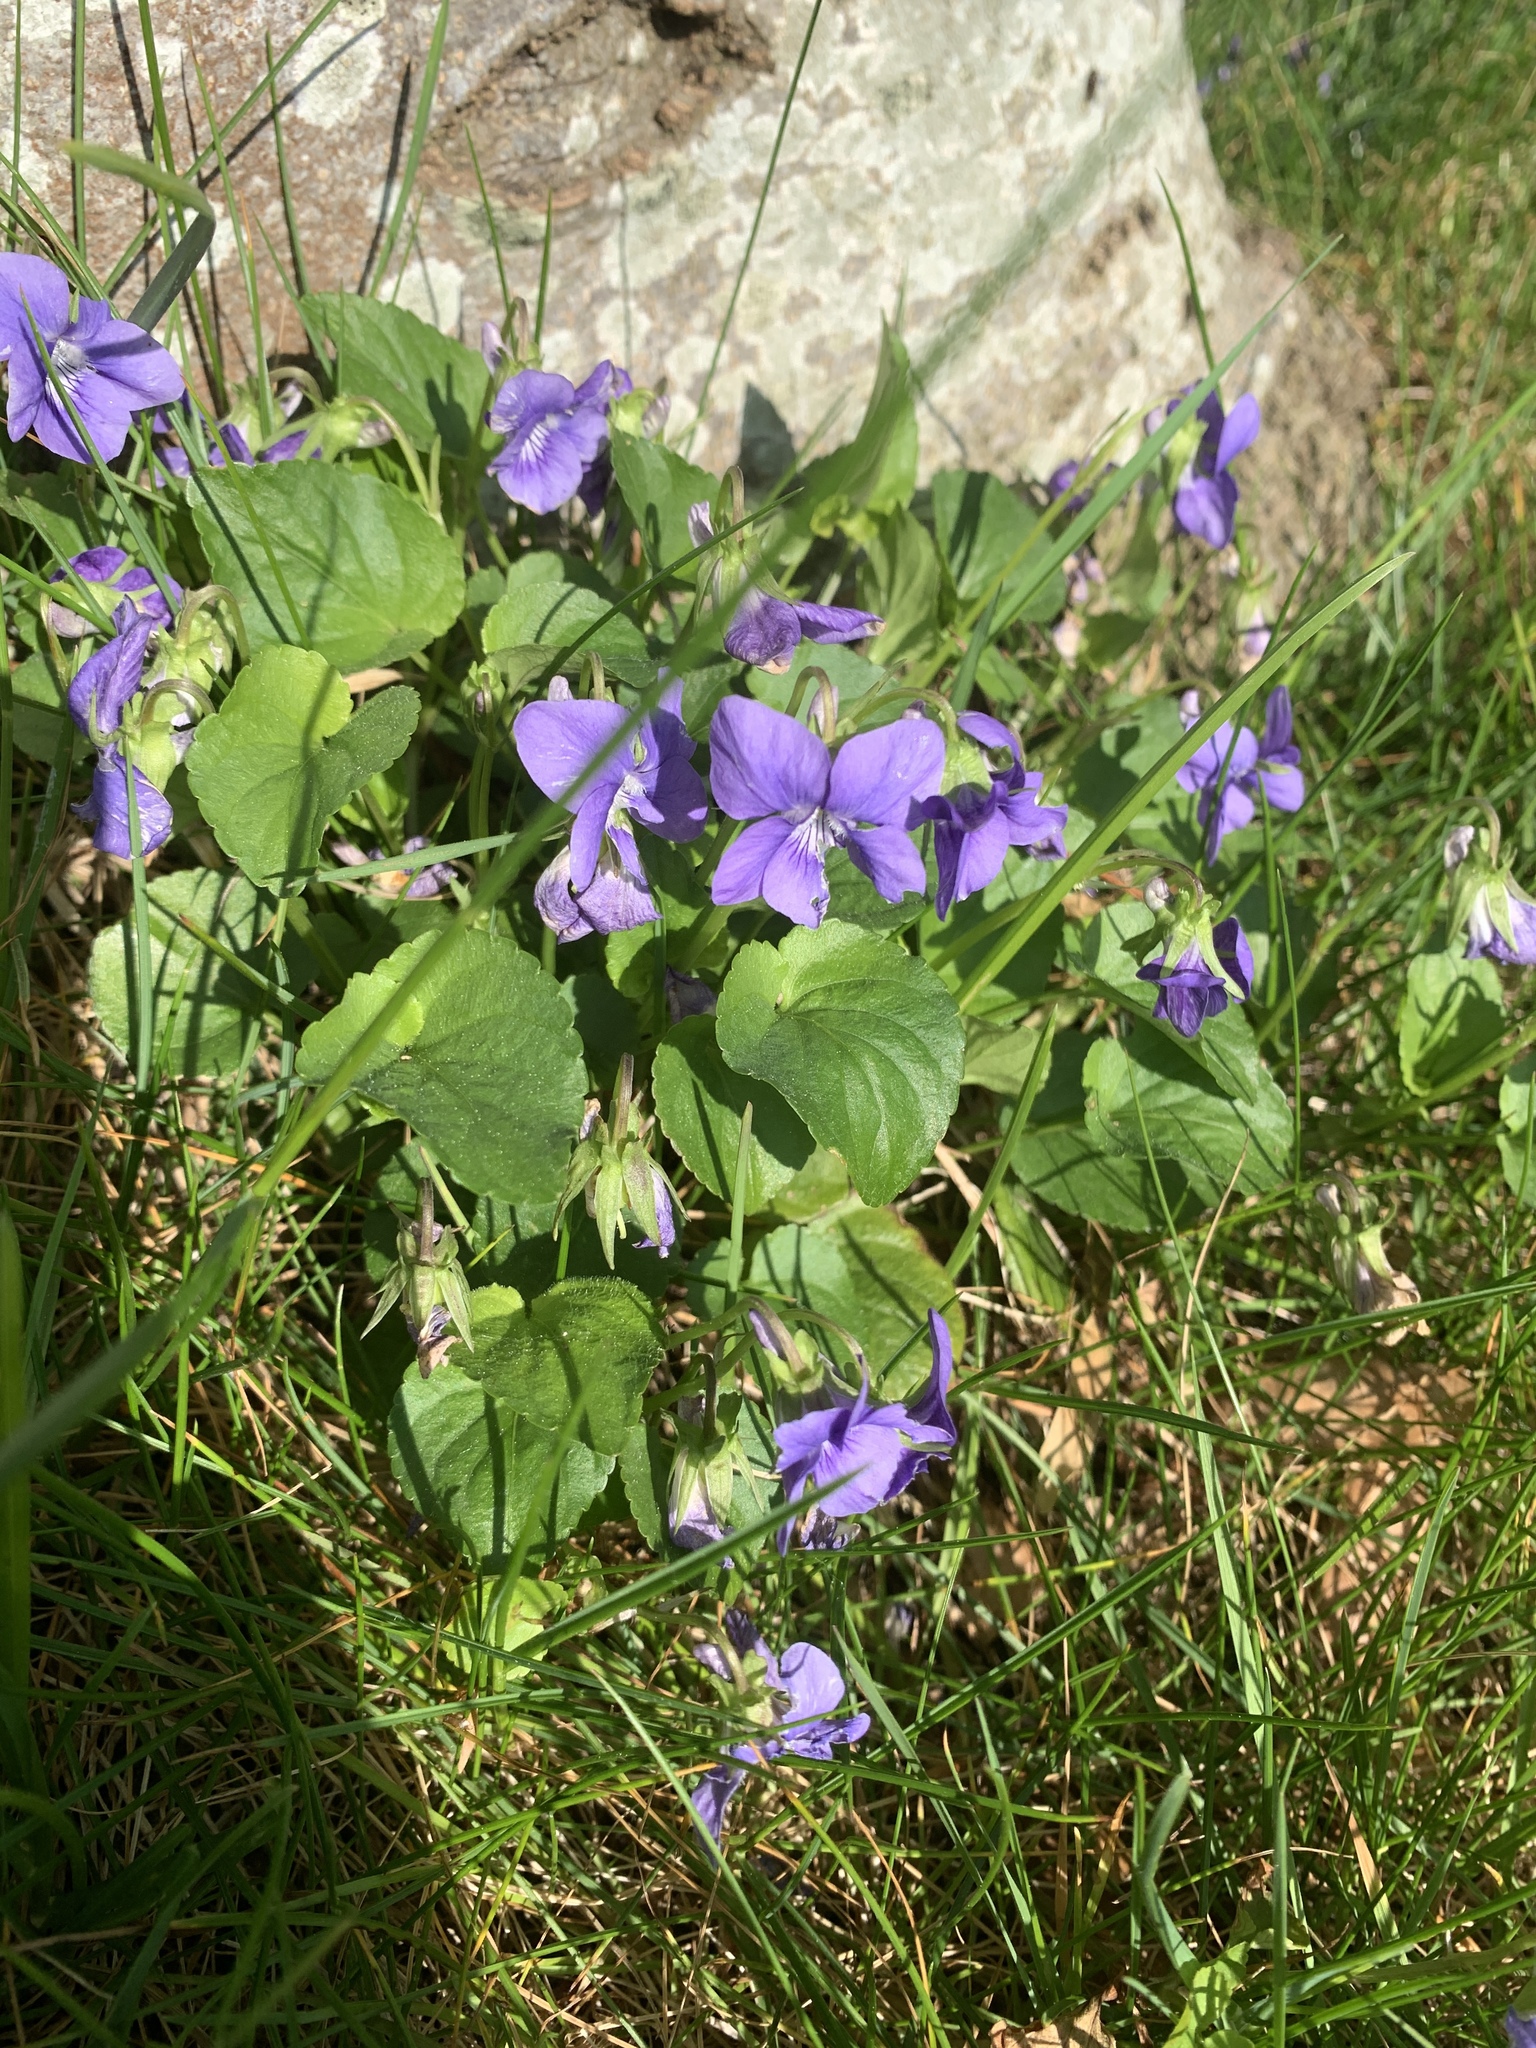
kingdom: Plantae
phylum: Tracheophyta
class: Magnoliopsida
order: Malpighiales
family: Violaceae
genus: Viola
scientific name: Viola riviniana
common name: Common dog-violet
